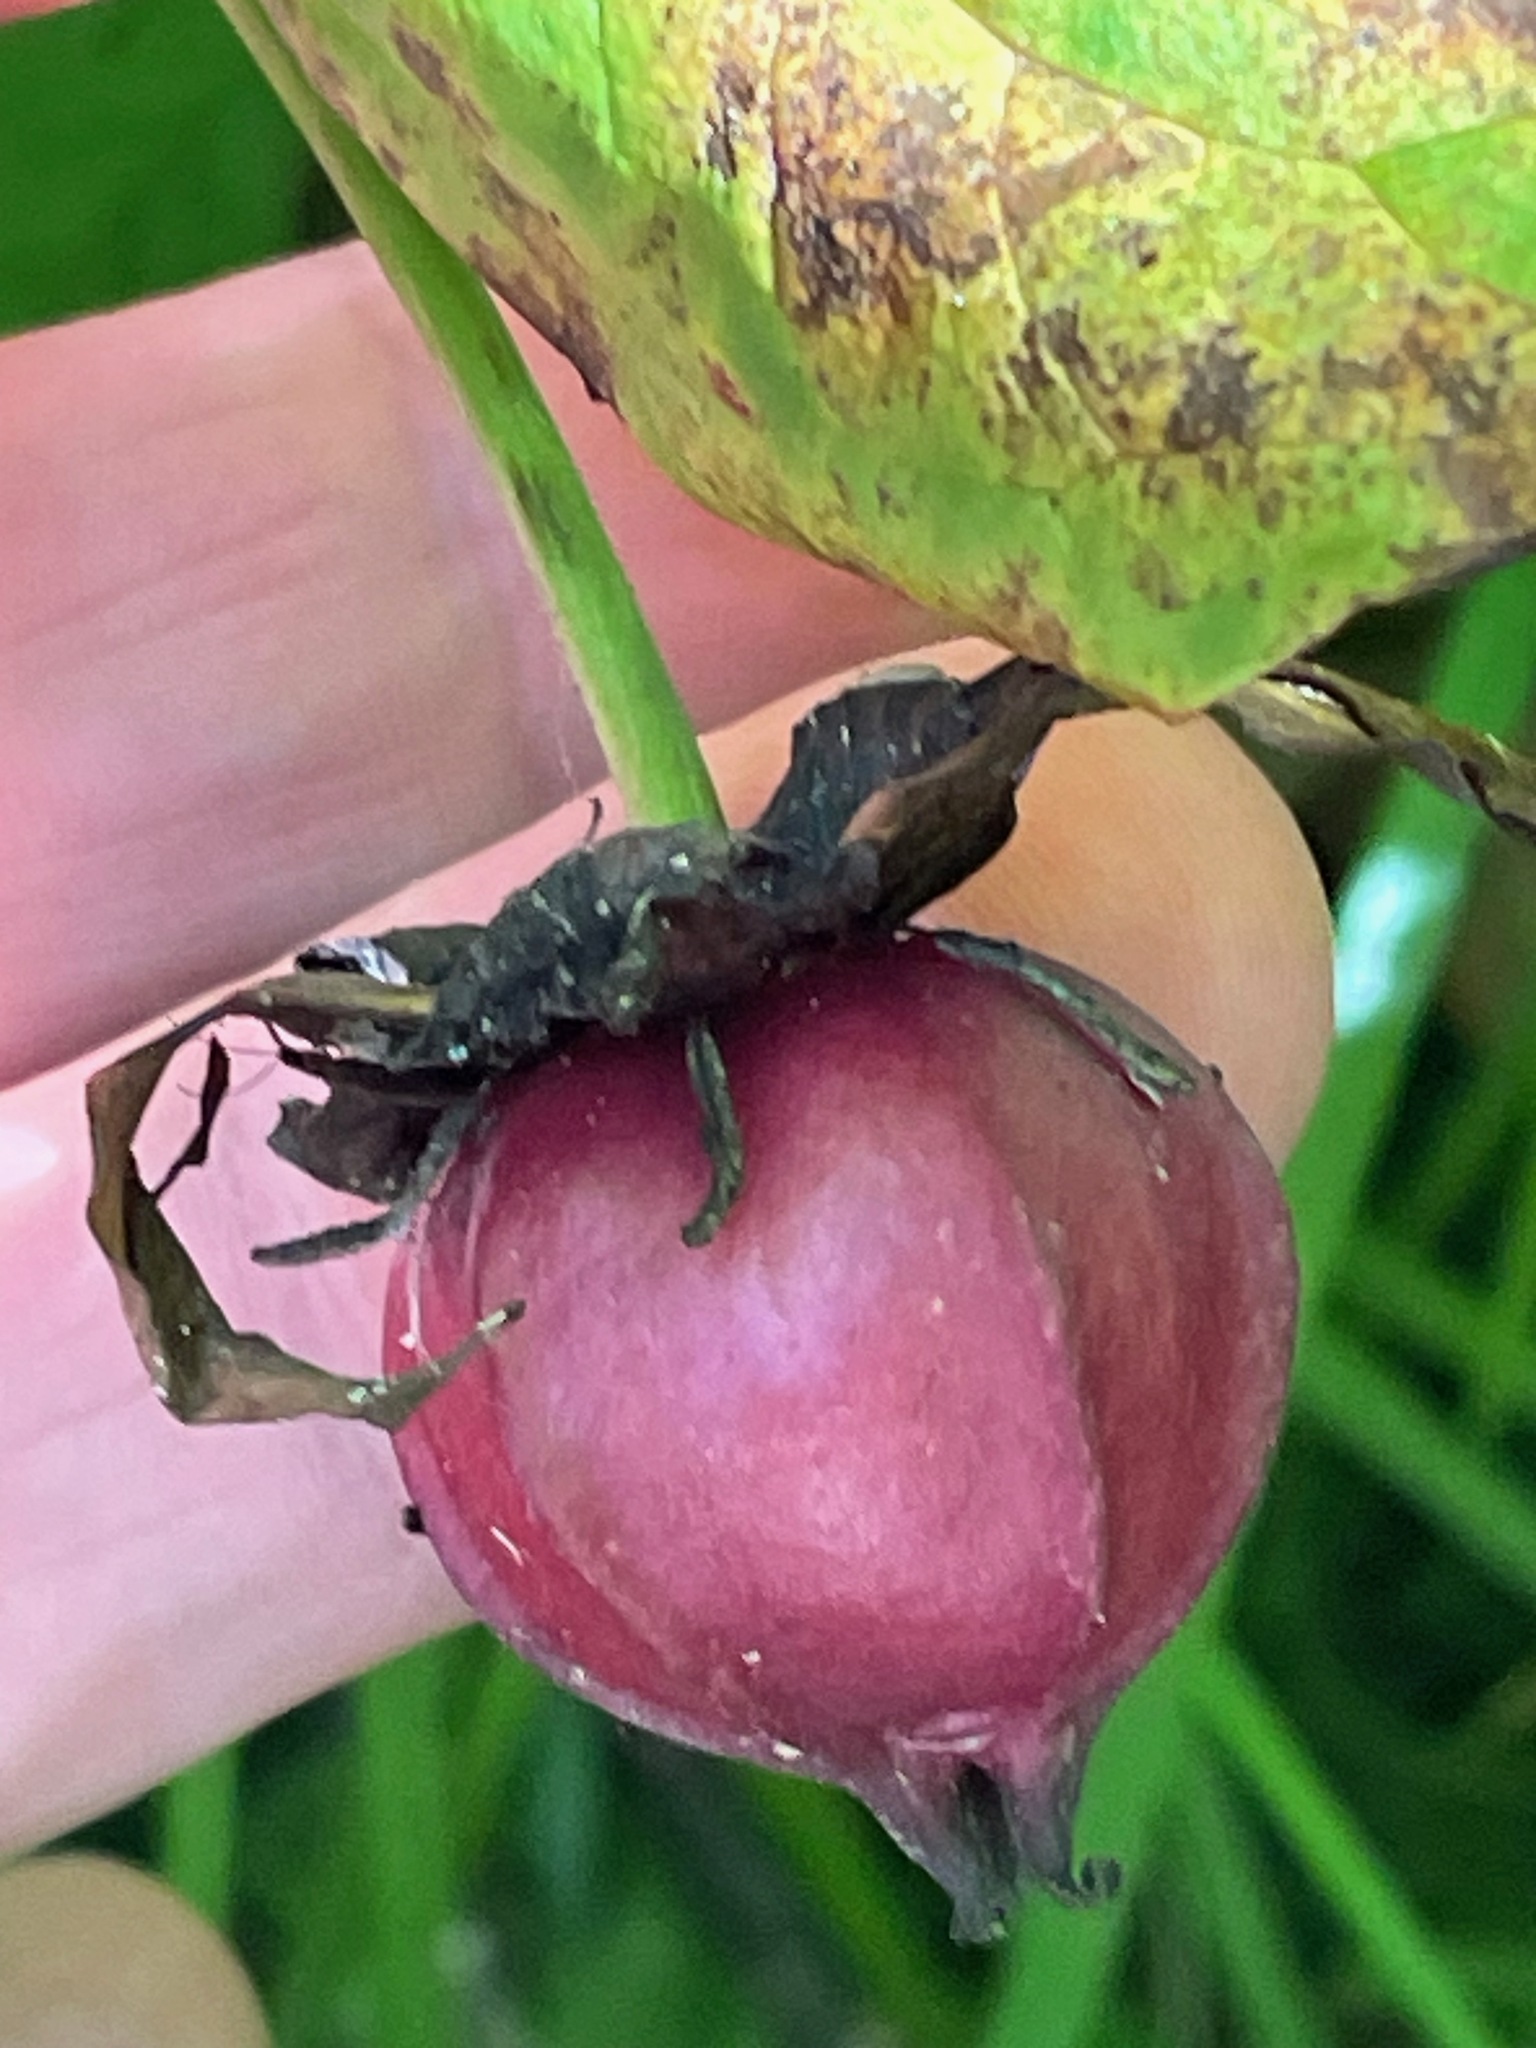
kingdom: Plantae
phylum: Tracheophyta
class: Liliopsida
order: Liliales
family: Melanthiaceae
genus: Trillium
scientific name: Trillium erectum
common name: Purple trillium
